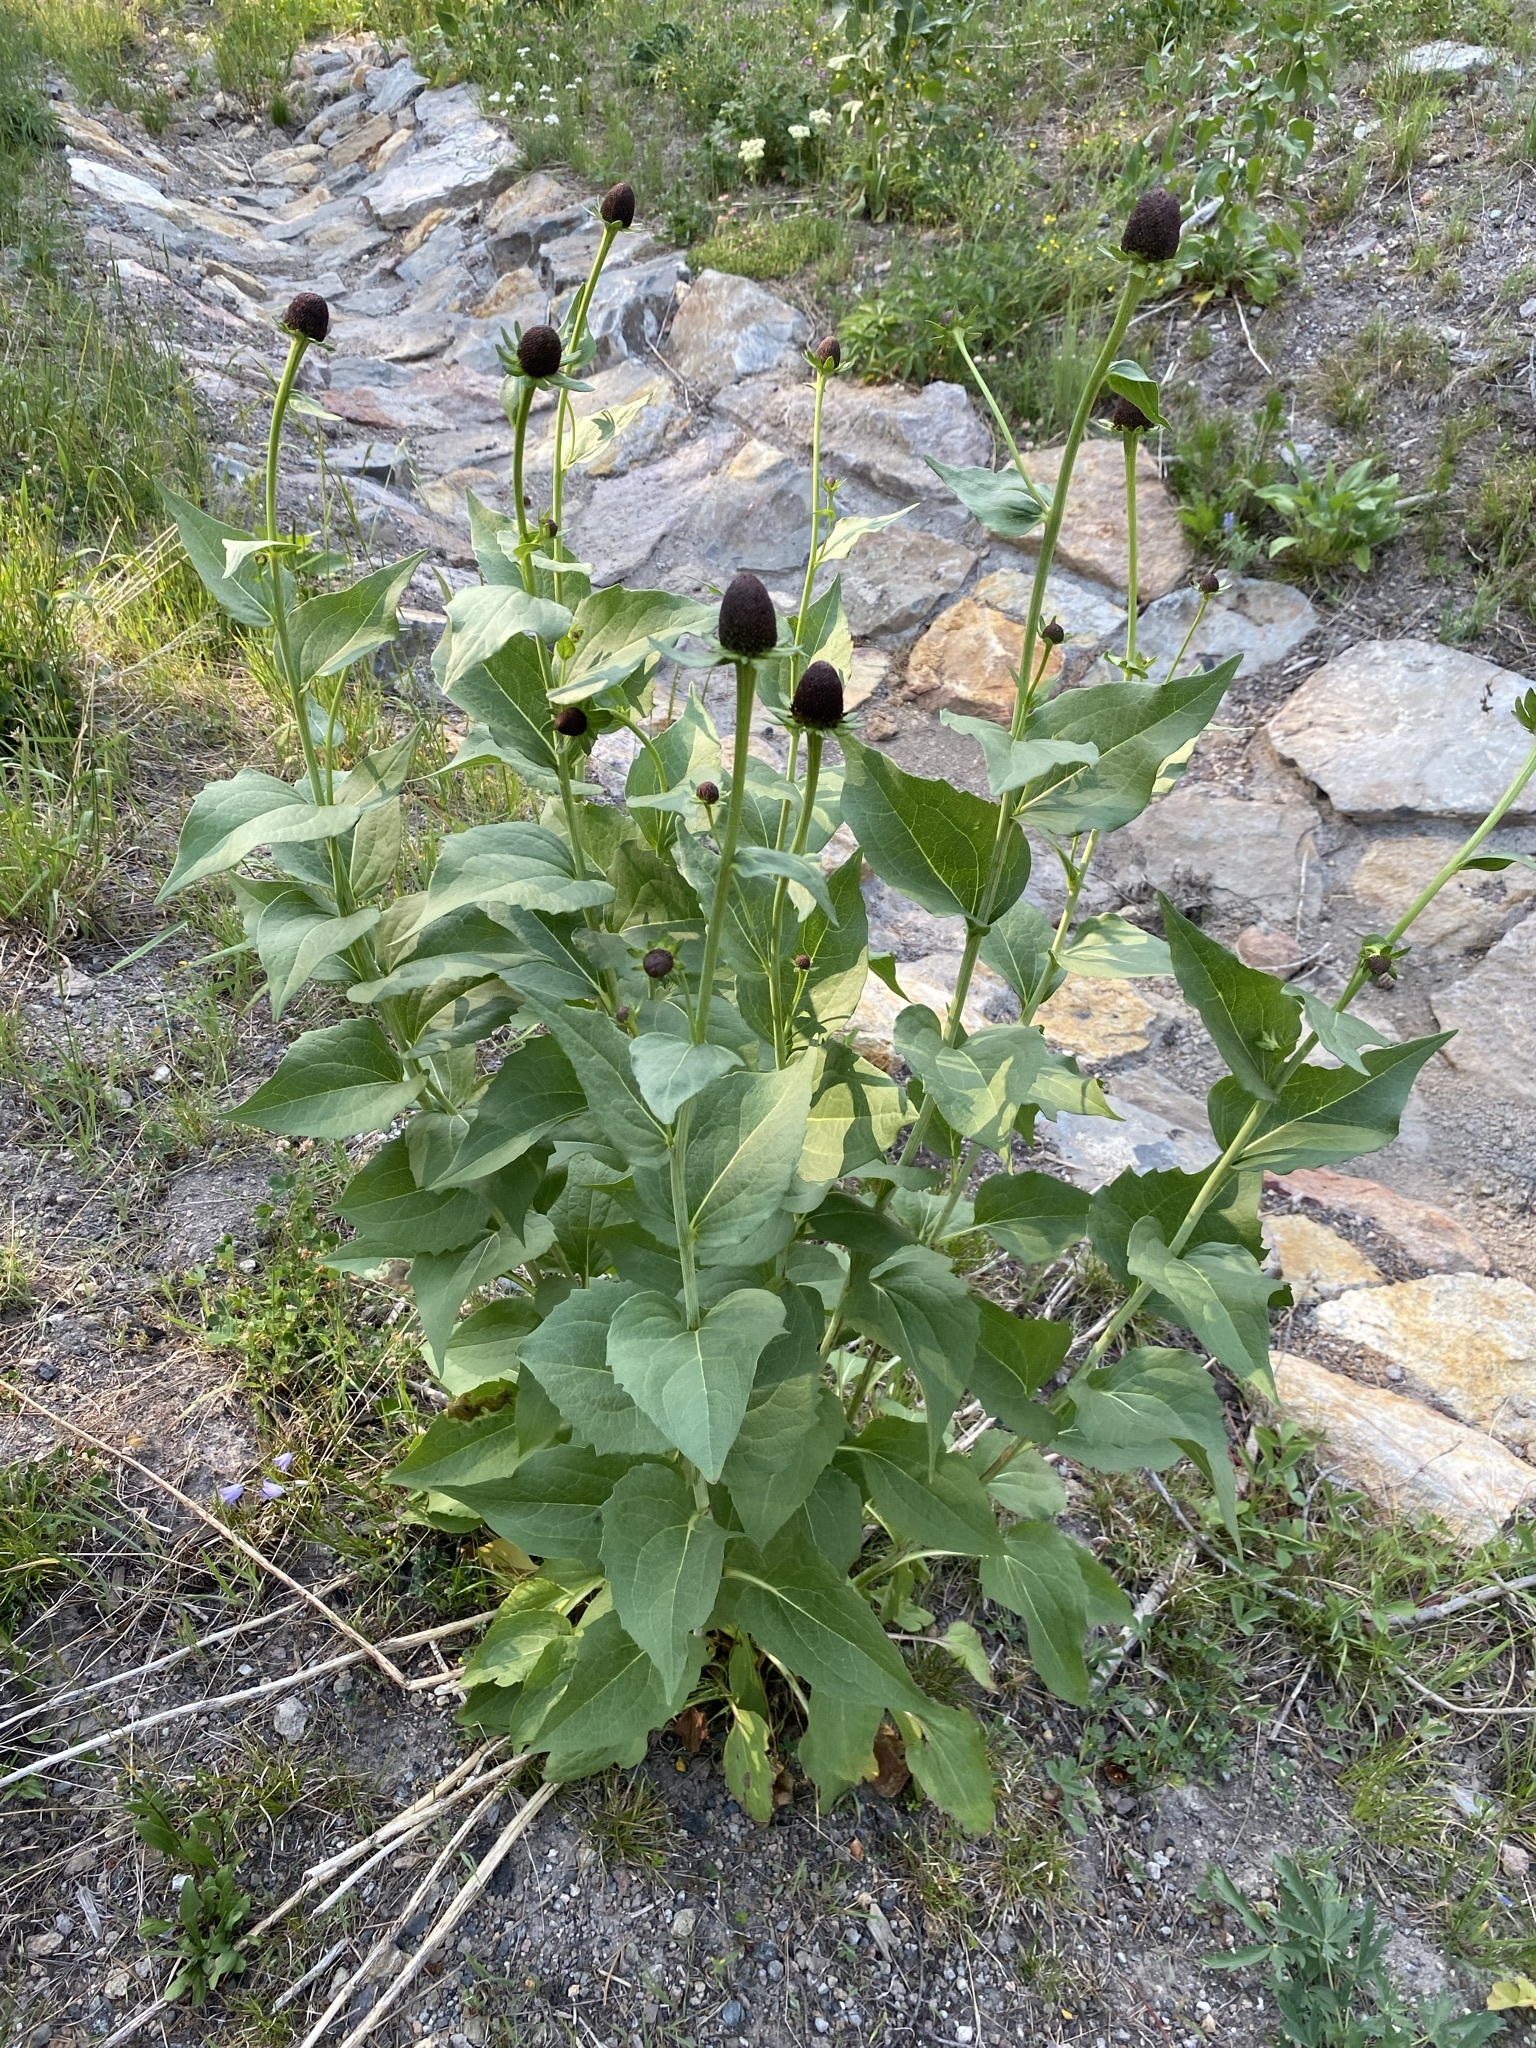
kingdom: Plantae
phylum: Tracheophyta
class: Magnoliopsida
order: Asterales
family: Asteraceae
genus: Rudbeckia
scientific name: Rudbeckia occidentalis
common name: Western coneflower
